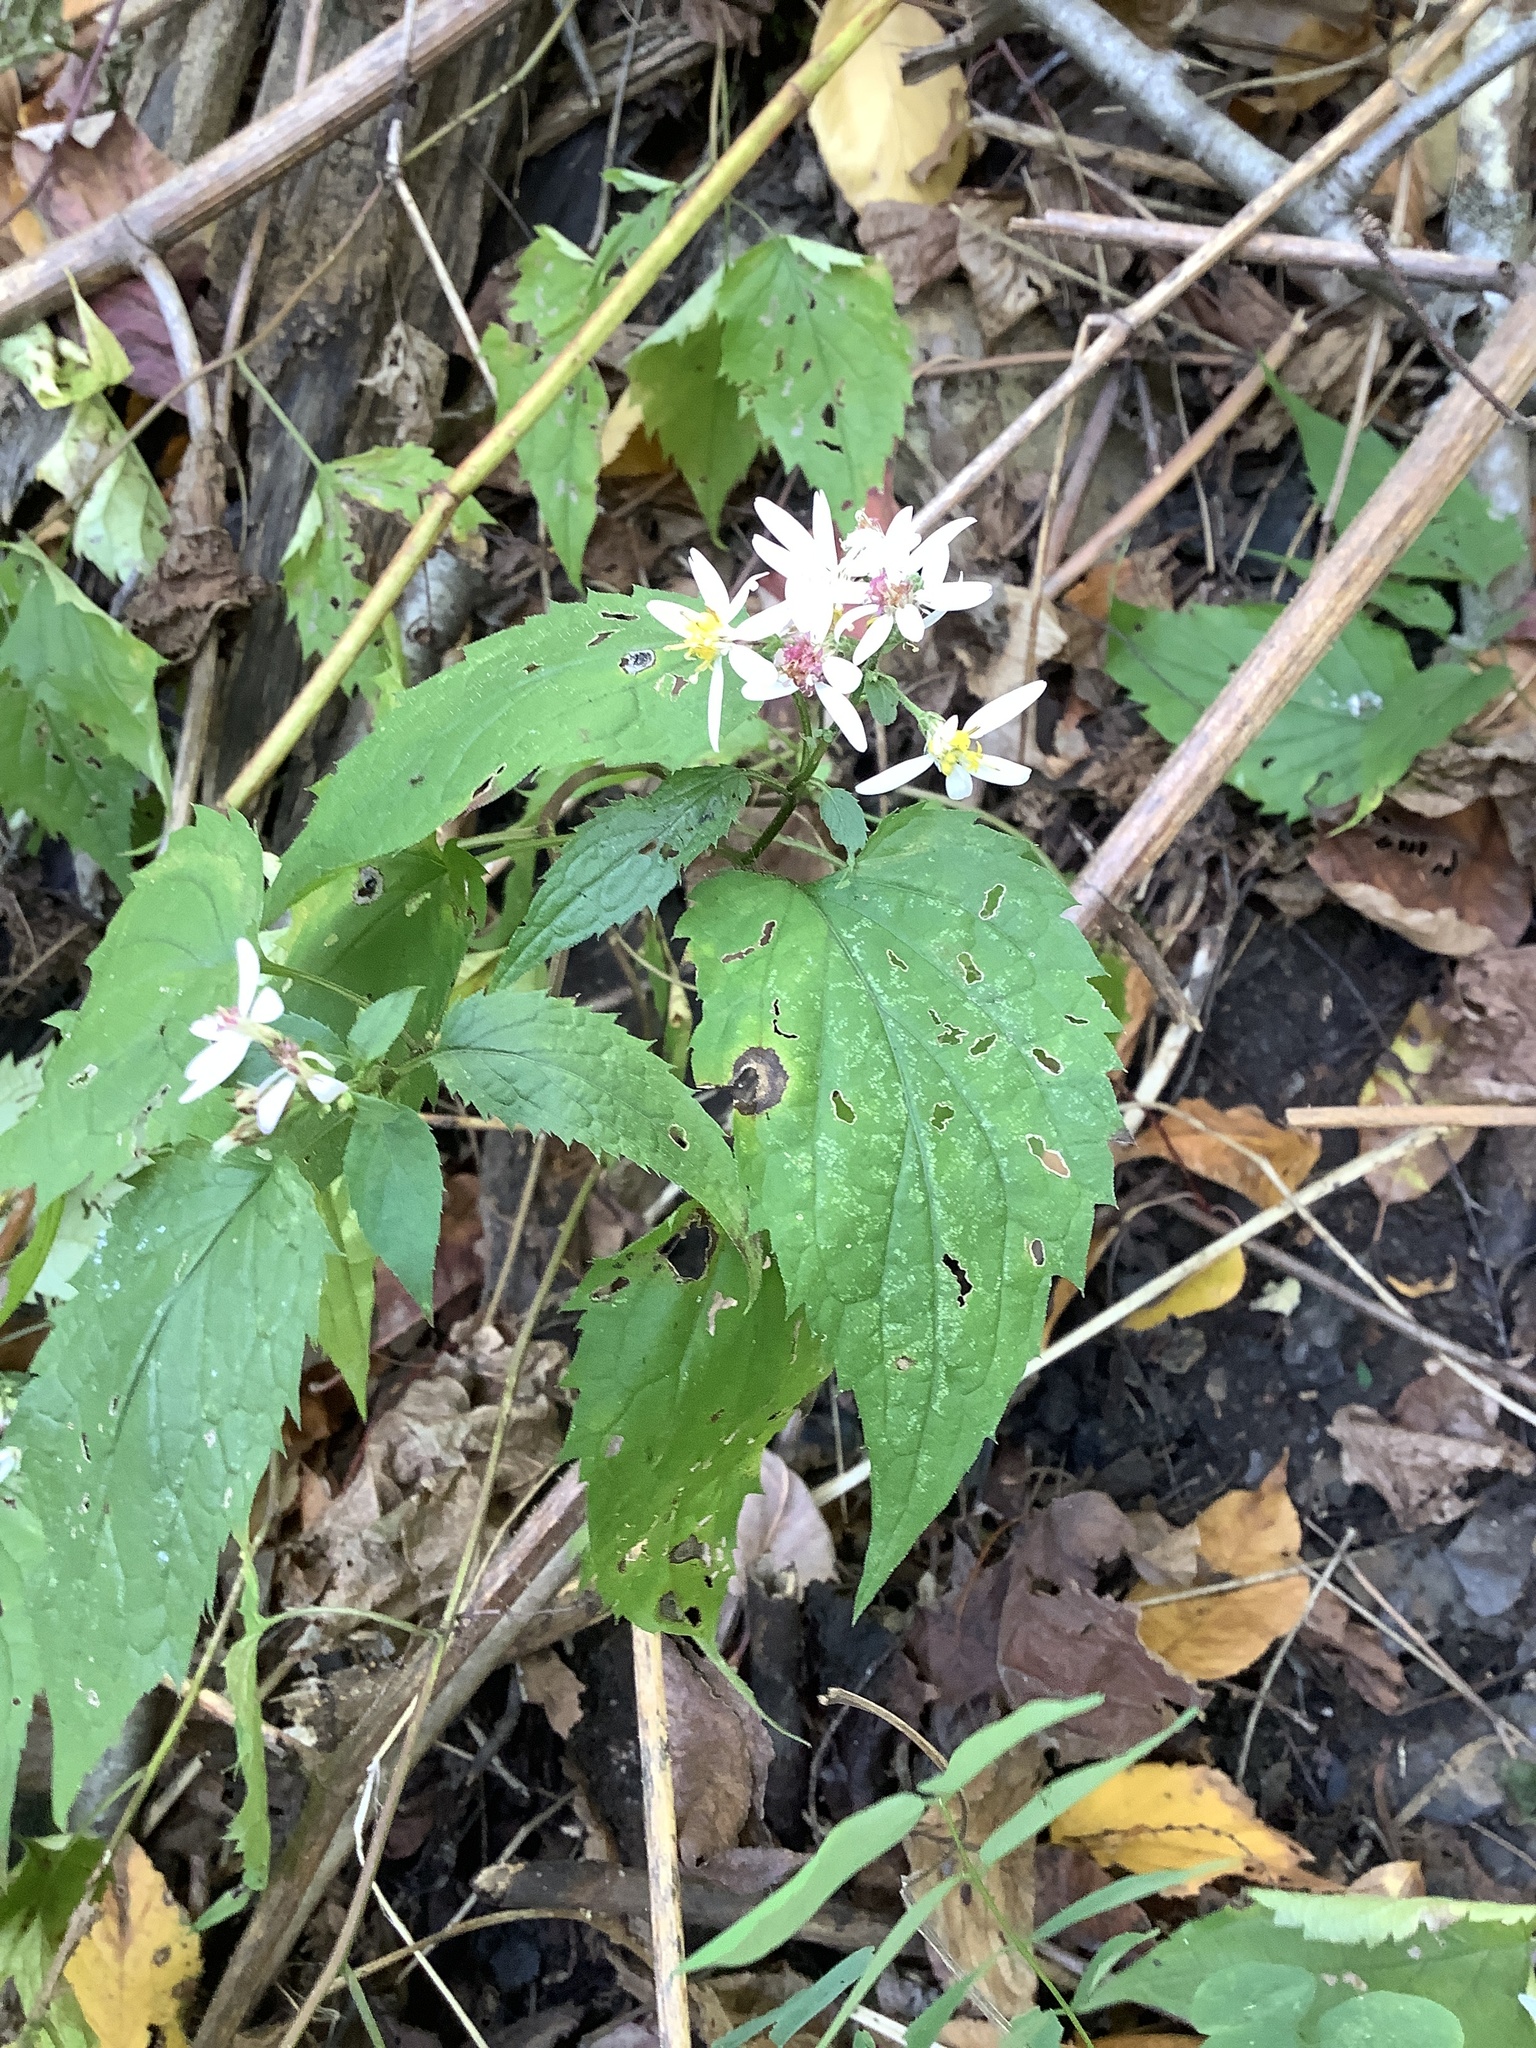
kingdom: Plantae
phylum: Tracheophyta
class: Magnoliopsida
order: Asterales
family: Asteraceae
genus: Eurybia
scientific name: Eurybia divaricata
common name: White wood aster
